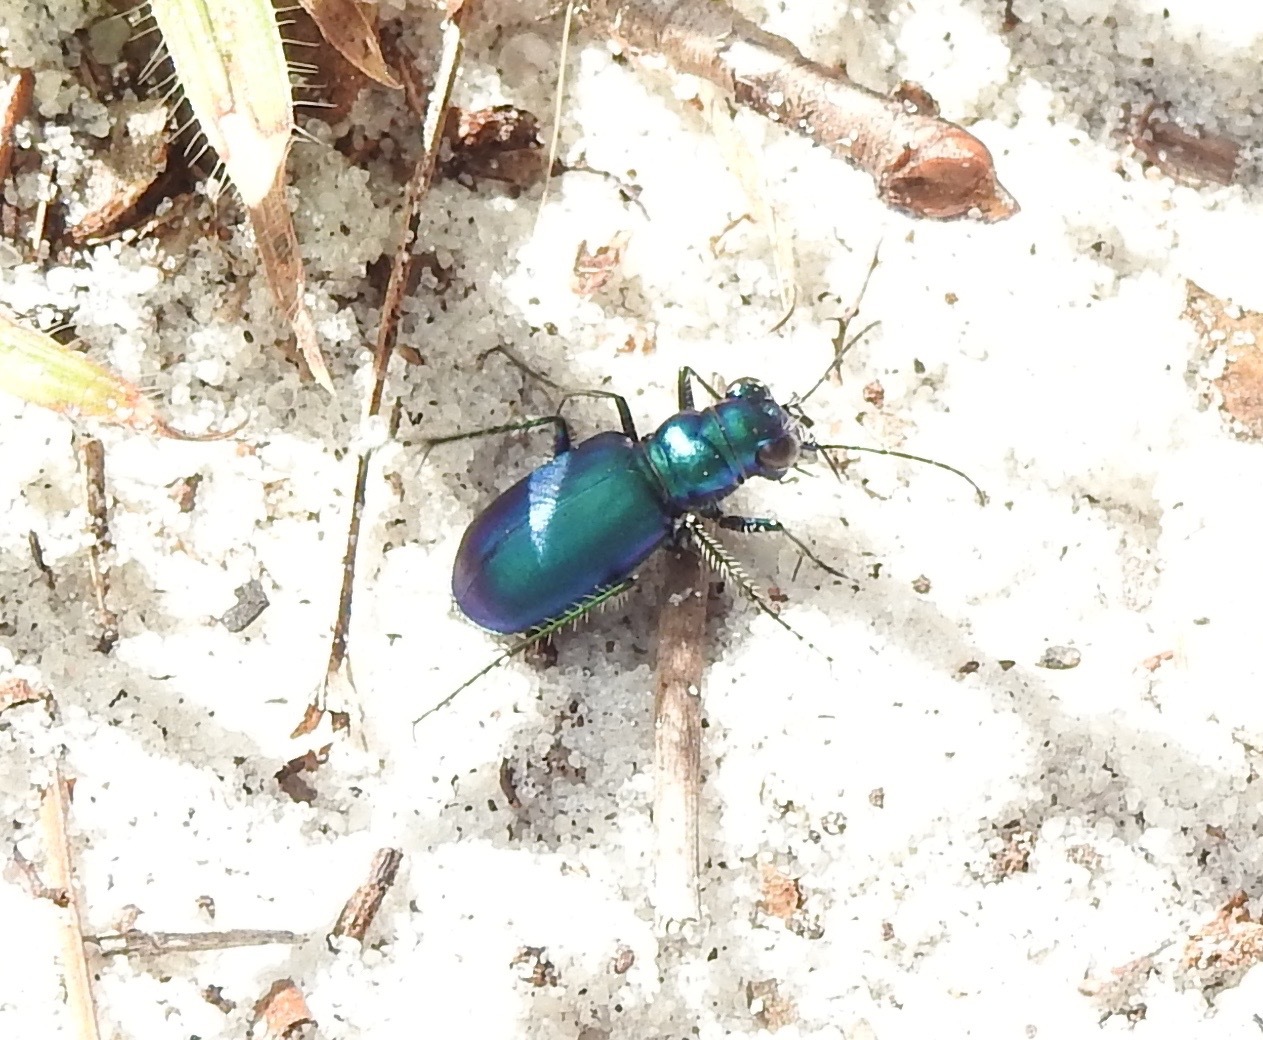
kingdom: Animalia
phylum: Arthropoda
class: Insecta
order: Coleoptera
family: Carabidae
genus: Cicindela
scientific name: Cicindela scutellaris
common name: Festive tiger beetle
